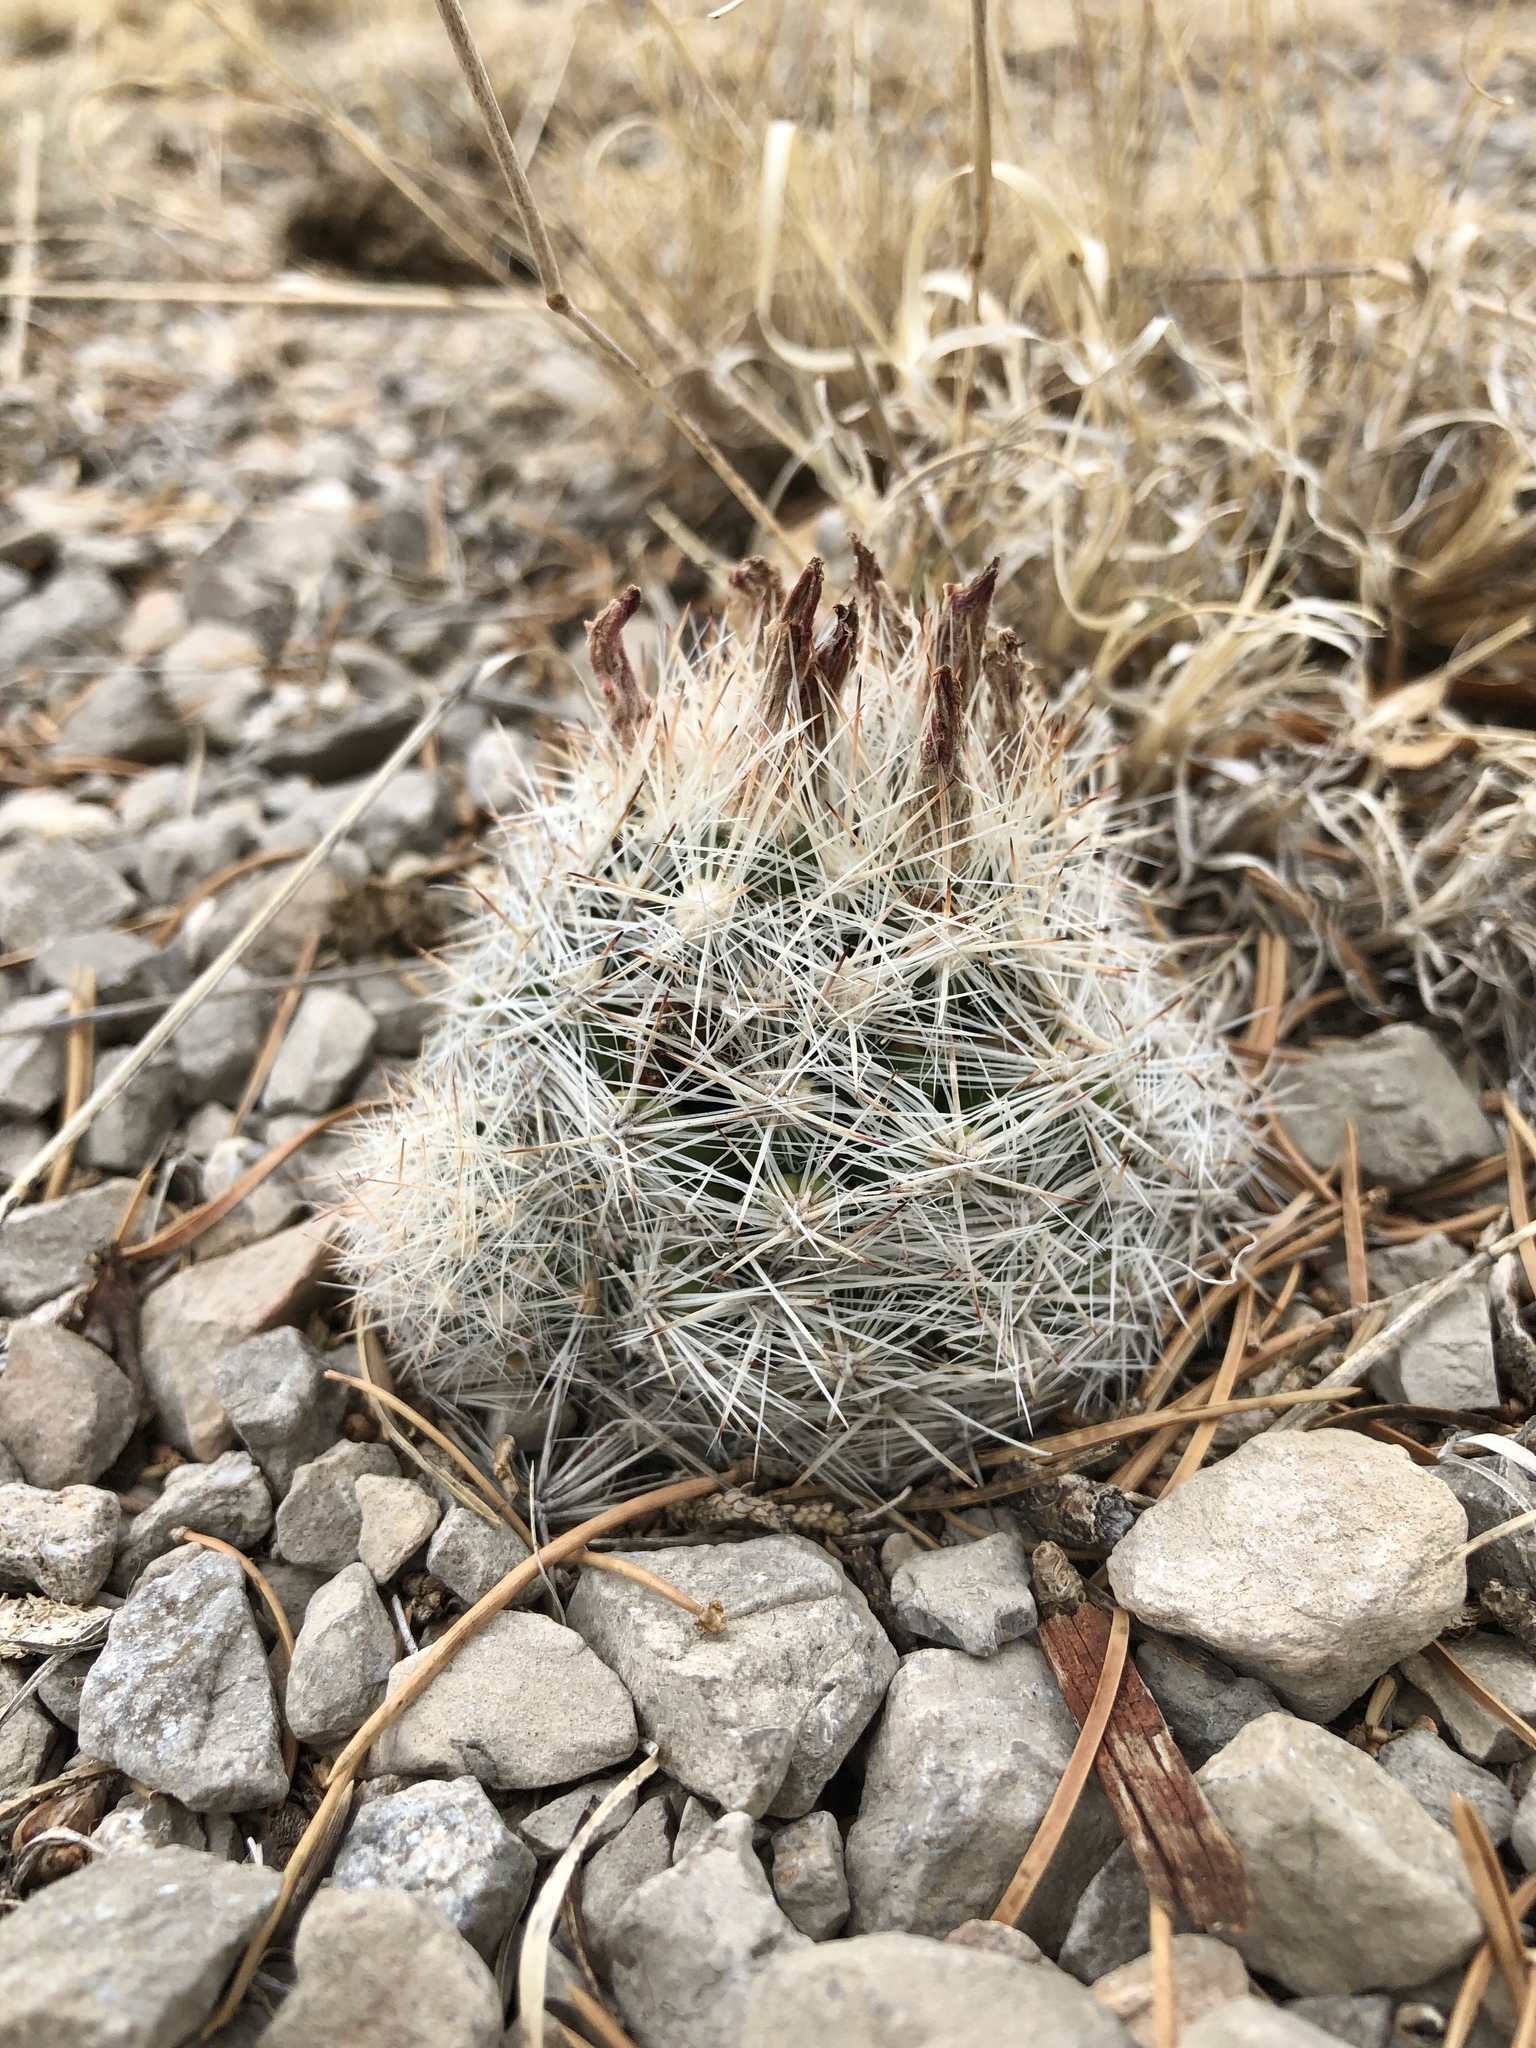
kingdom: Plantae
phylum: Tracheophyta
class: Magnoliopsida
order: Caryophyllales
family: Cactaceae
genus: Pelecyphora
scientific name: Pelecyphora vivipara
